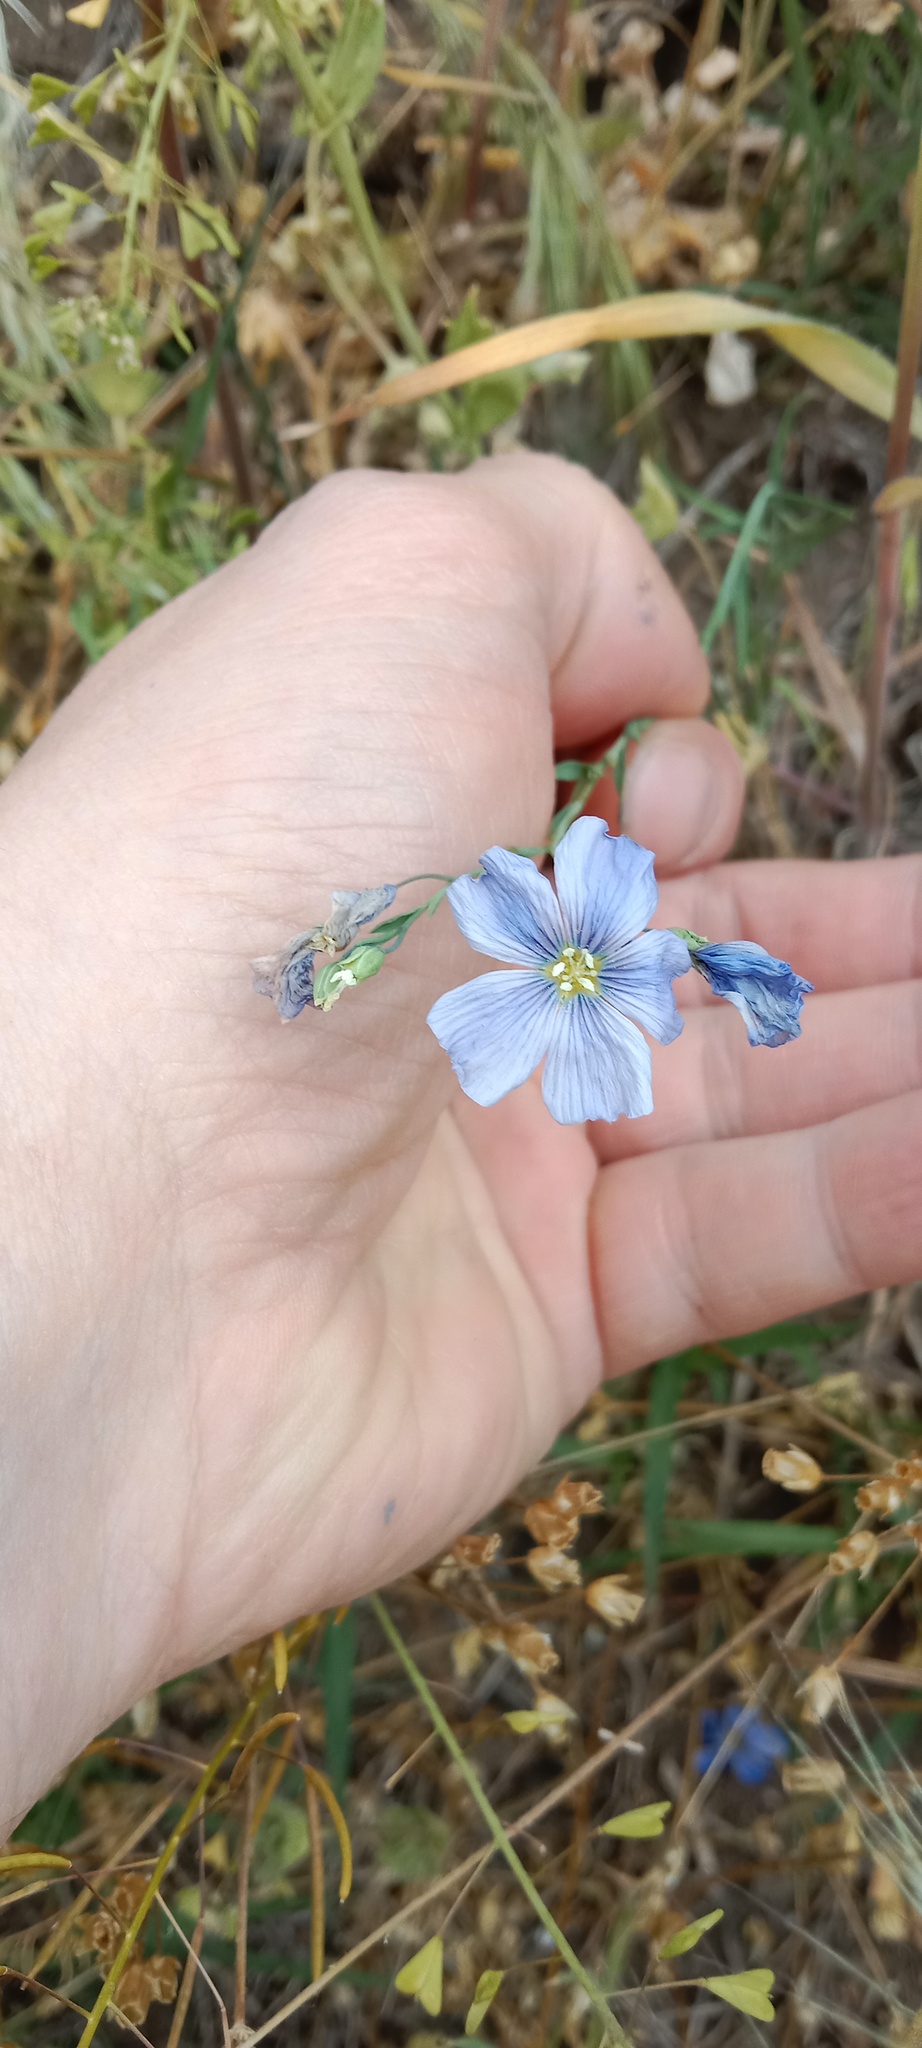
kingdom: Plantae
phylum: Tracheophyta
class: Magnoliopsida
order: Malpighiales
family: Linaceae
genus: Linum
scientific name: Linum austriacum
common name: Austrian flax
